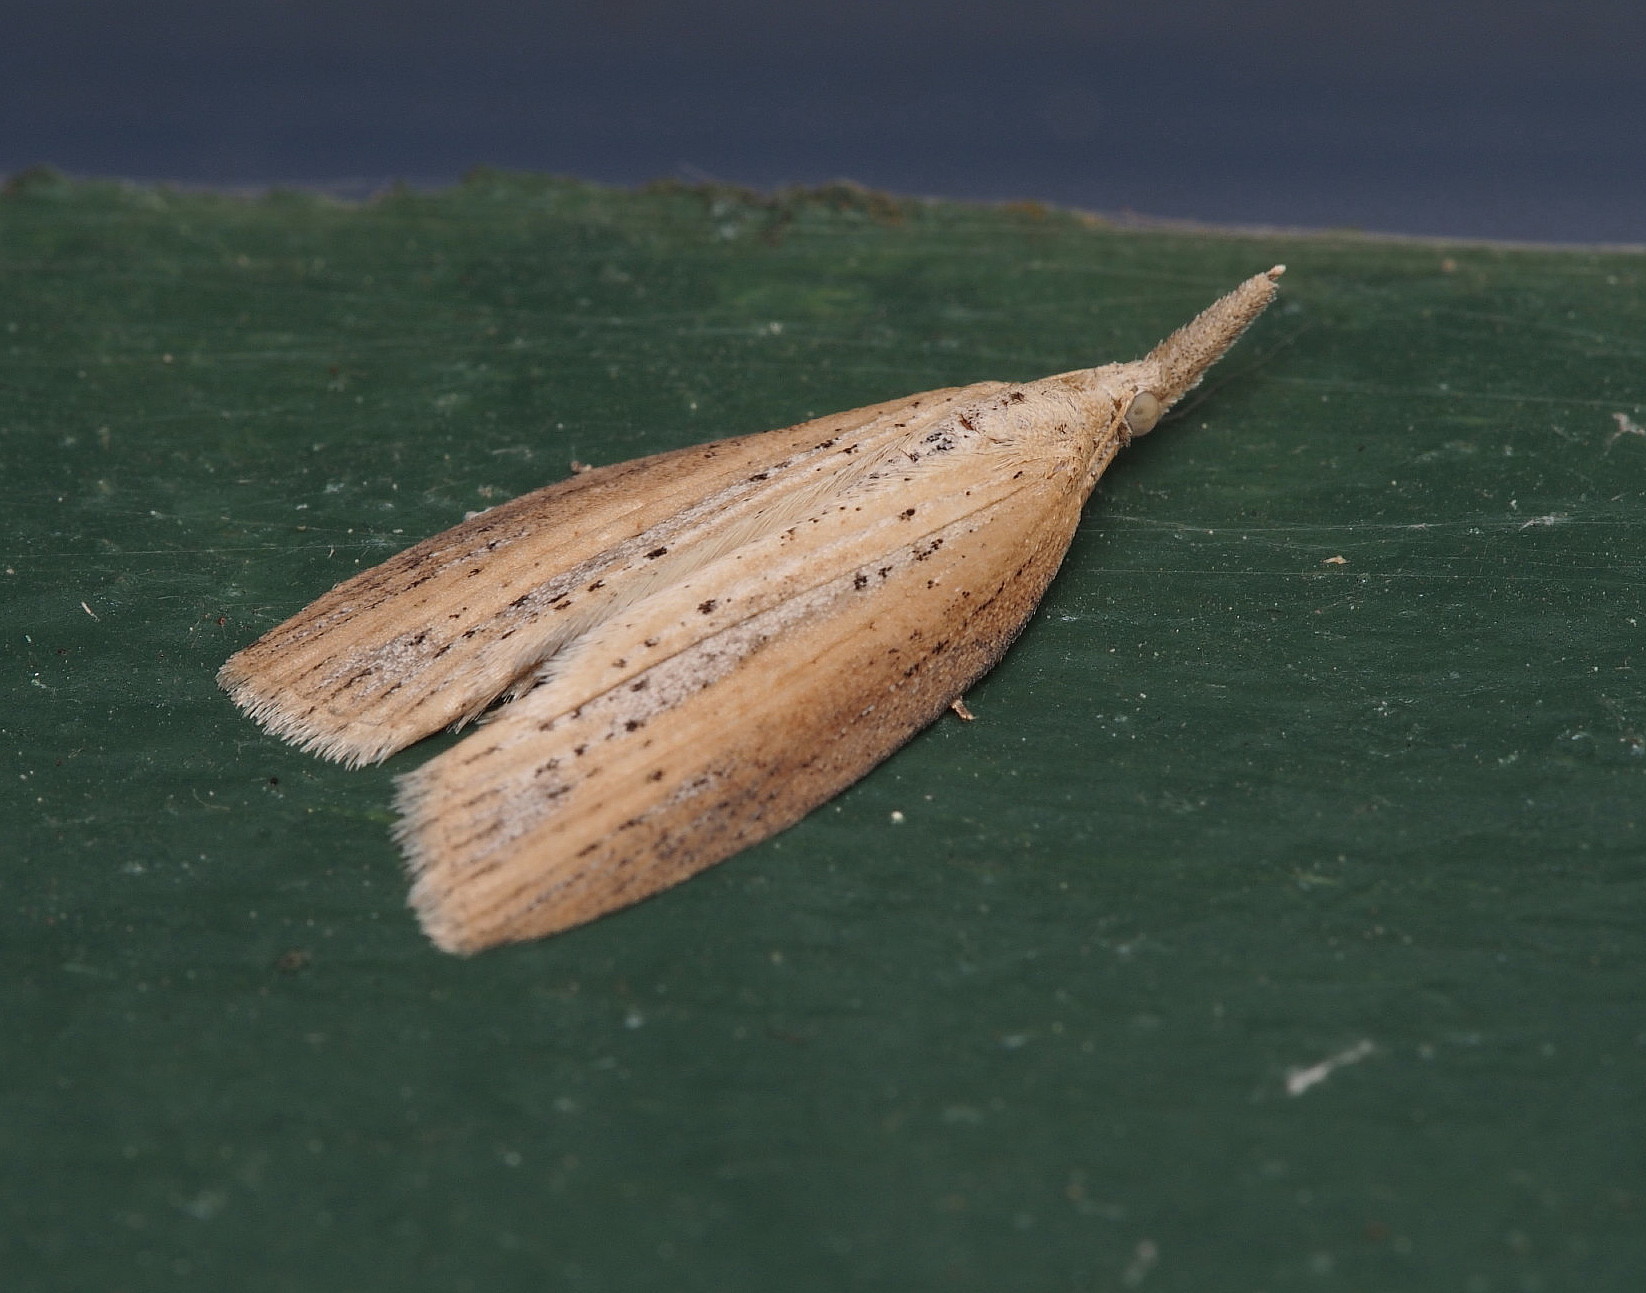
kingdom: Animalia
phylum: Arthropoda
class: Insecta
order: Lepidoptera
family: Geometridae
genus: Microdes
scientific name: Microdes epicryptis
